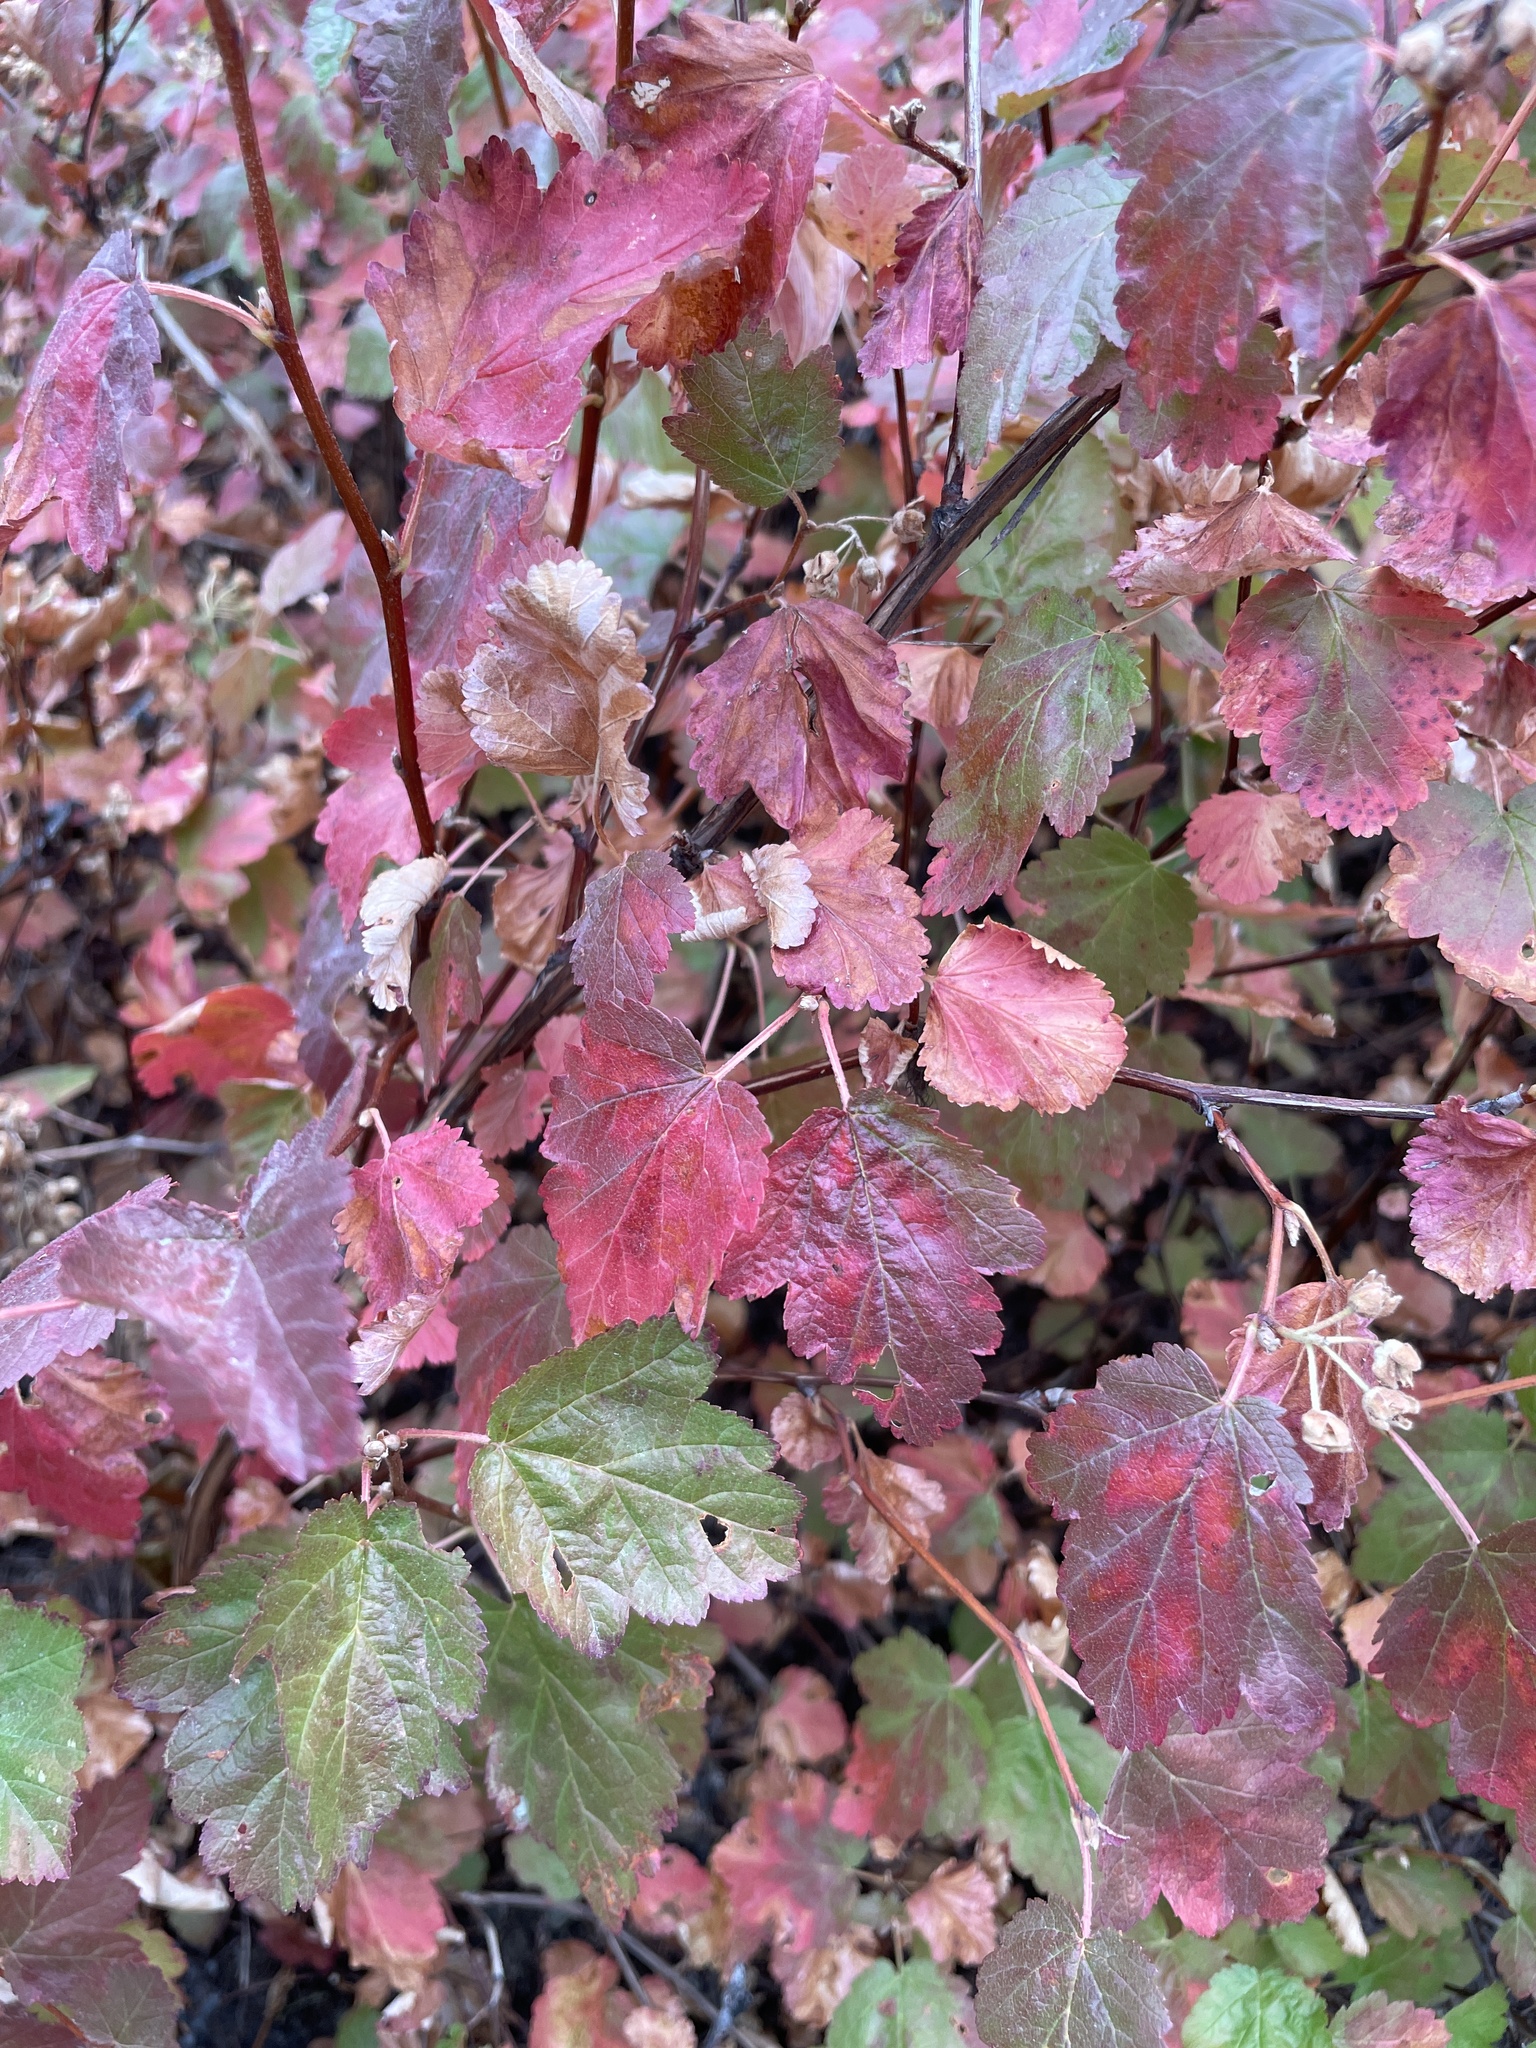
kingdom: Plantae
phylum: Tracheophyta
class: Magnoliopsida
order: Rosales
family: Rosaceae
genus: Physocarpus
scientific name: Physocarpus malvaceus
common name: Mallow ninebark
